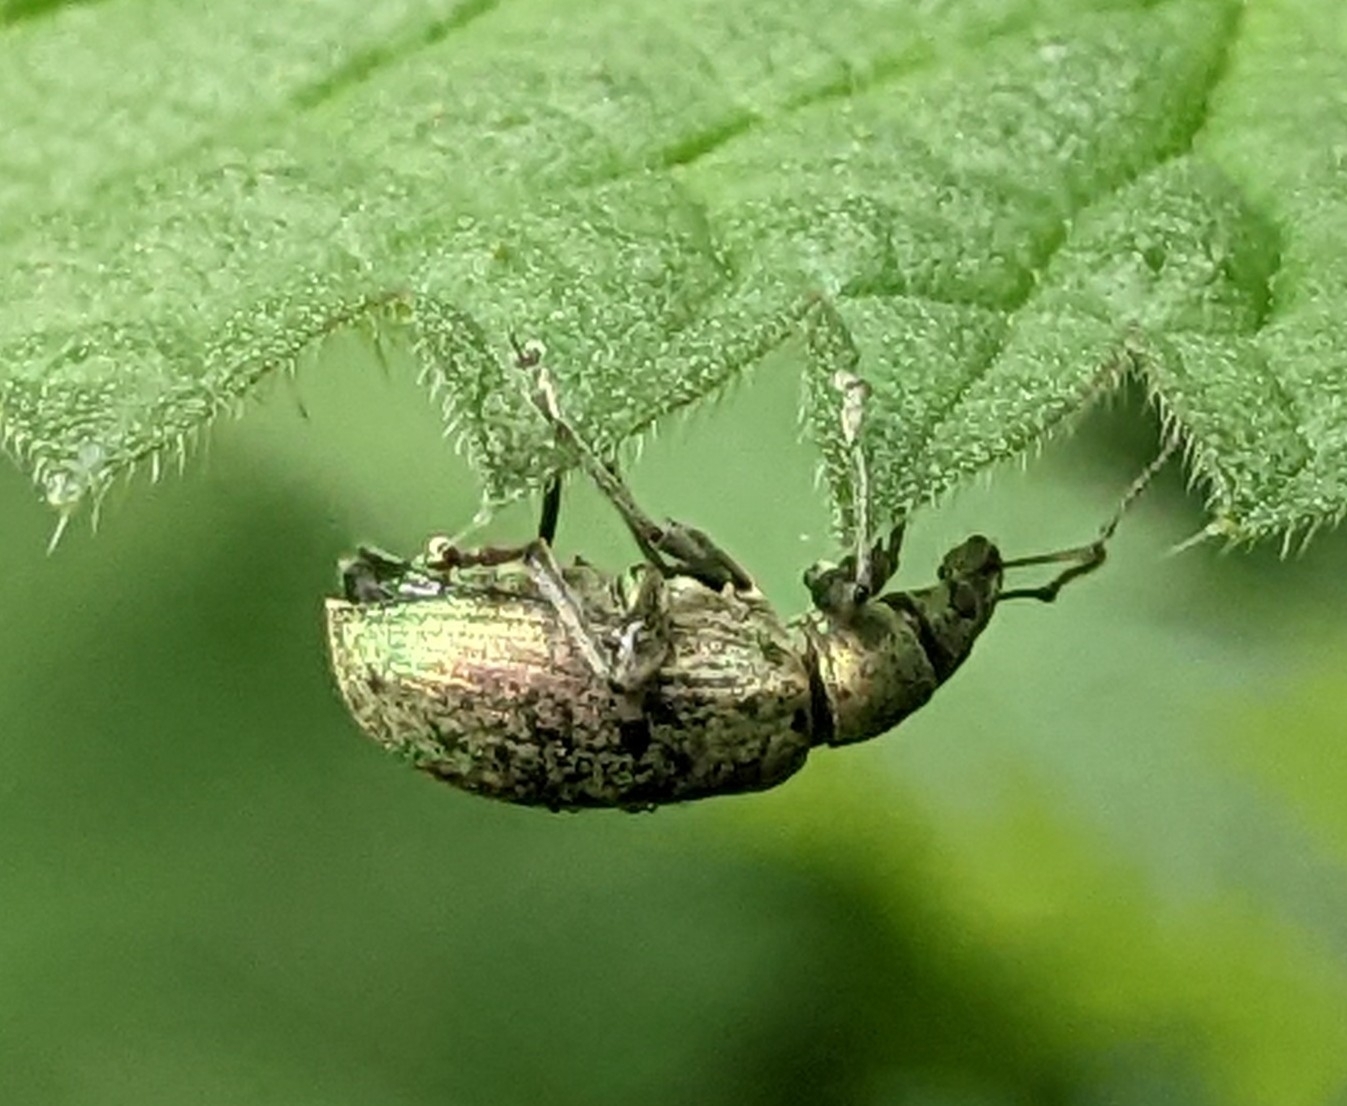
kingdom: Animalia
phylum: Arthropoda
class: Insecta
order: Coleoptera
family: Curculionidae
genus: Phyllobius
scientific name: Phyllobius pomaceus
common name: Green nettle weevil
